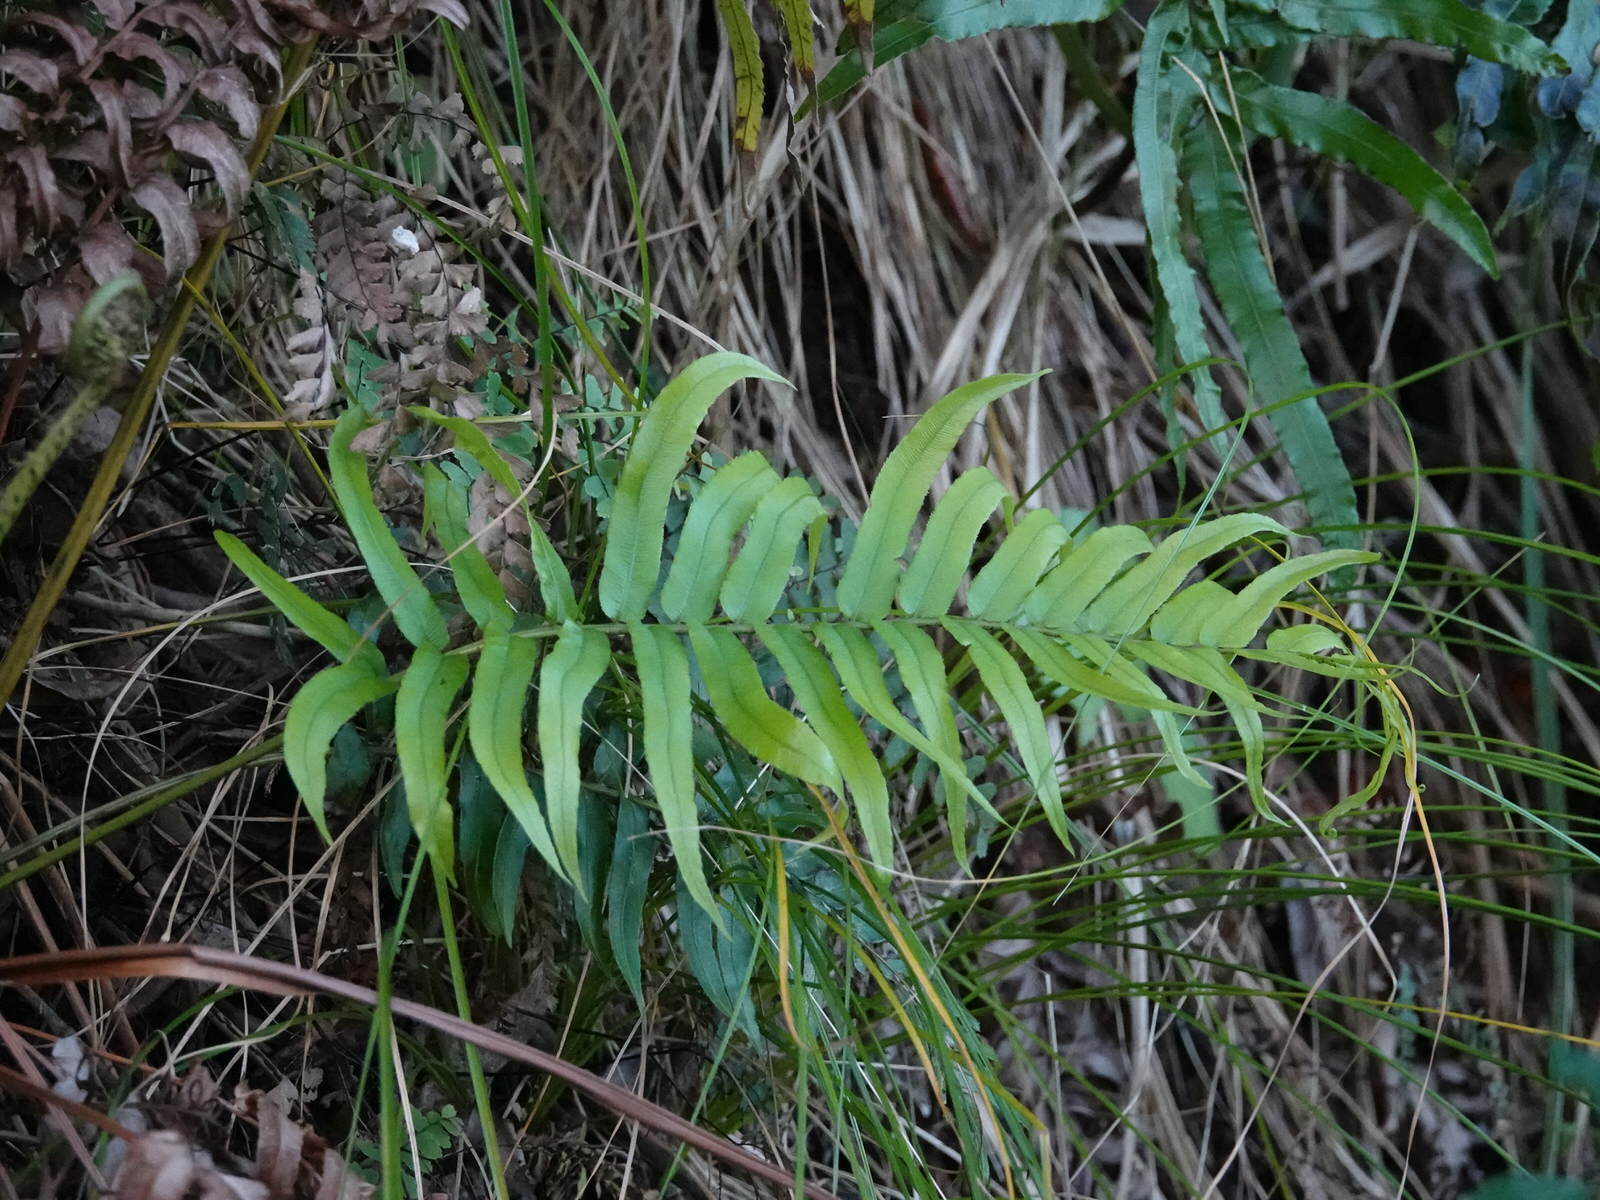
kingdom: Plantae
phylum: Tracheophyta
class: Polypodiopsida
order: Polypodiales
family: Blechnaceae
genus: Parablechnum
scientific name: Parablechnum triangularifolium
